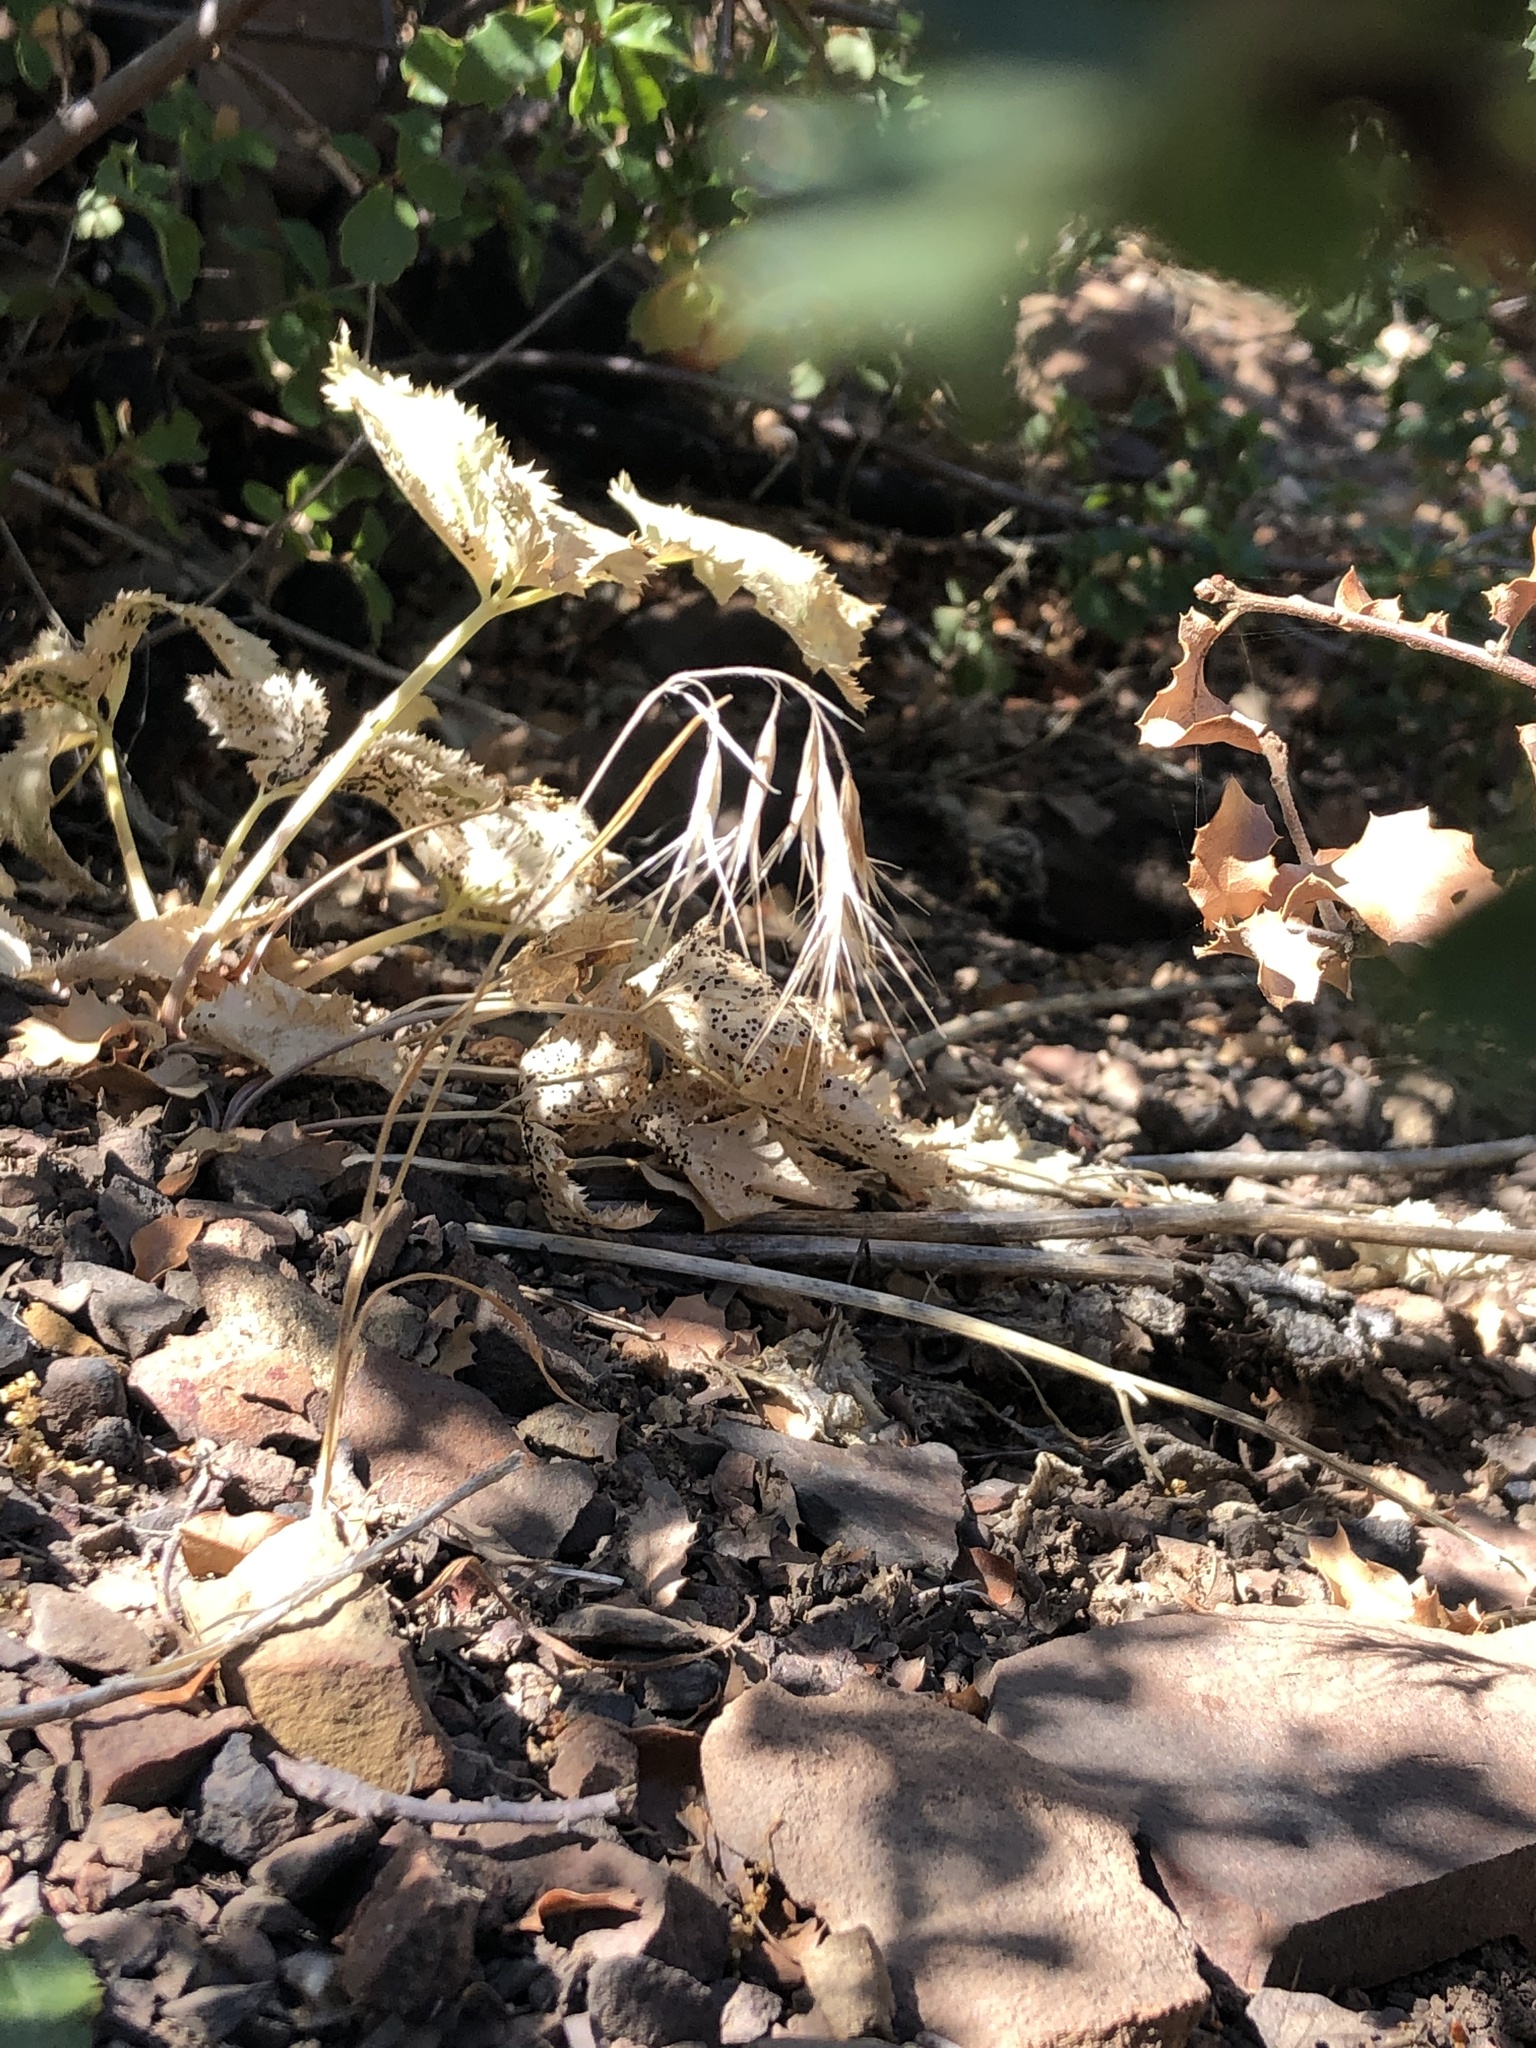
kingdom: Plantae
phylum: Tracheophyta
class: Liliopsida
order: Poales
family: Poaceae
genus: Bromus
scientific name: Bromus tectorum
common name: Cheatgrass
